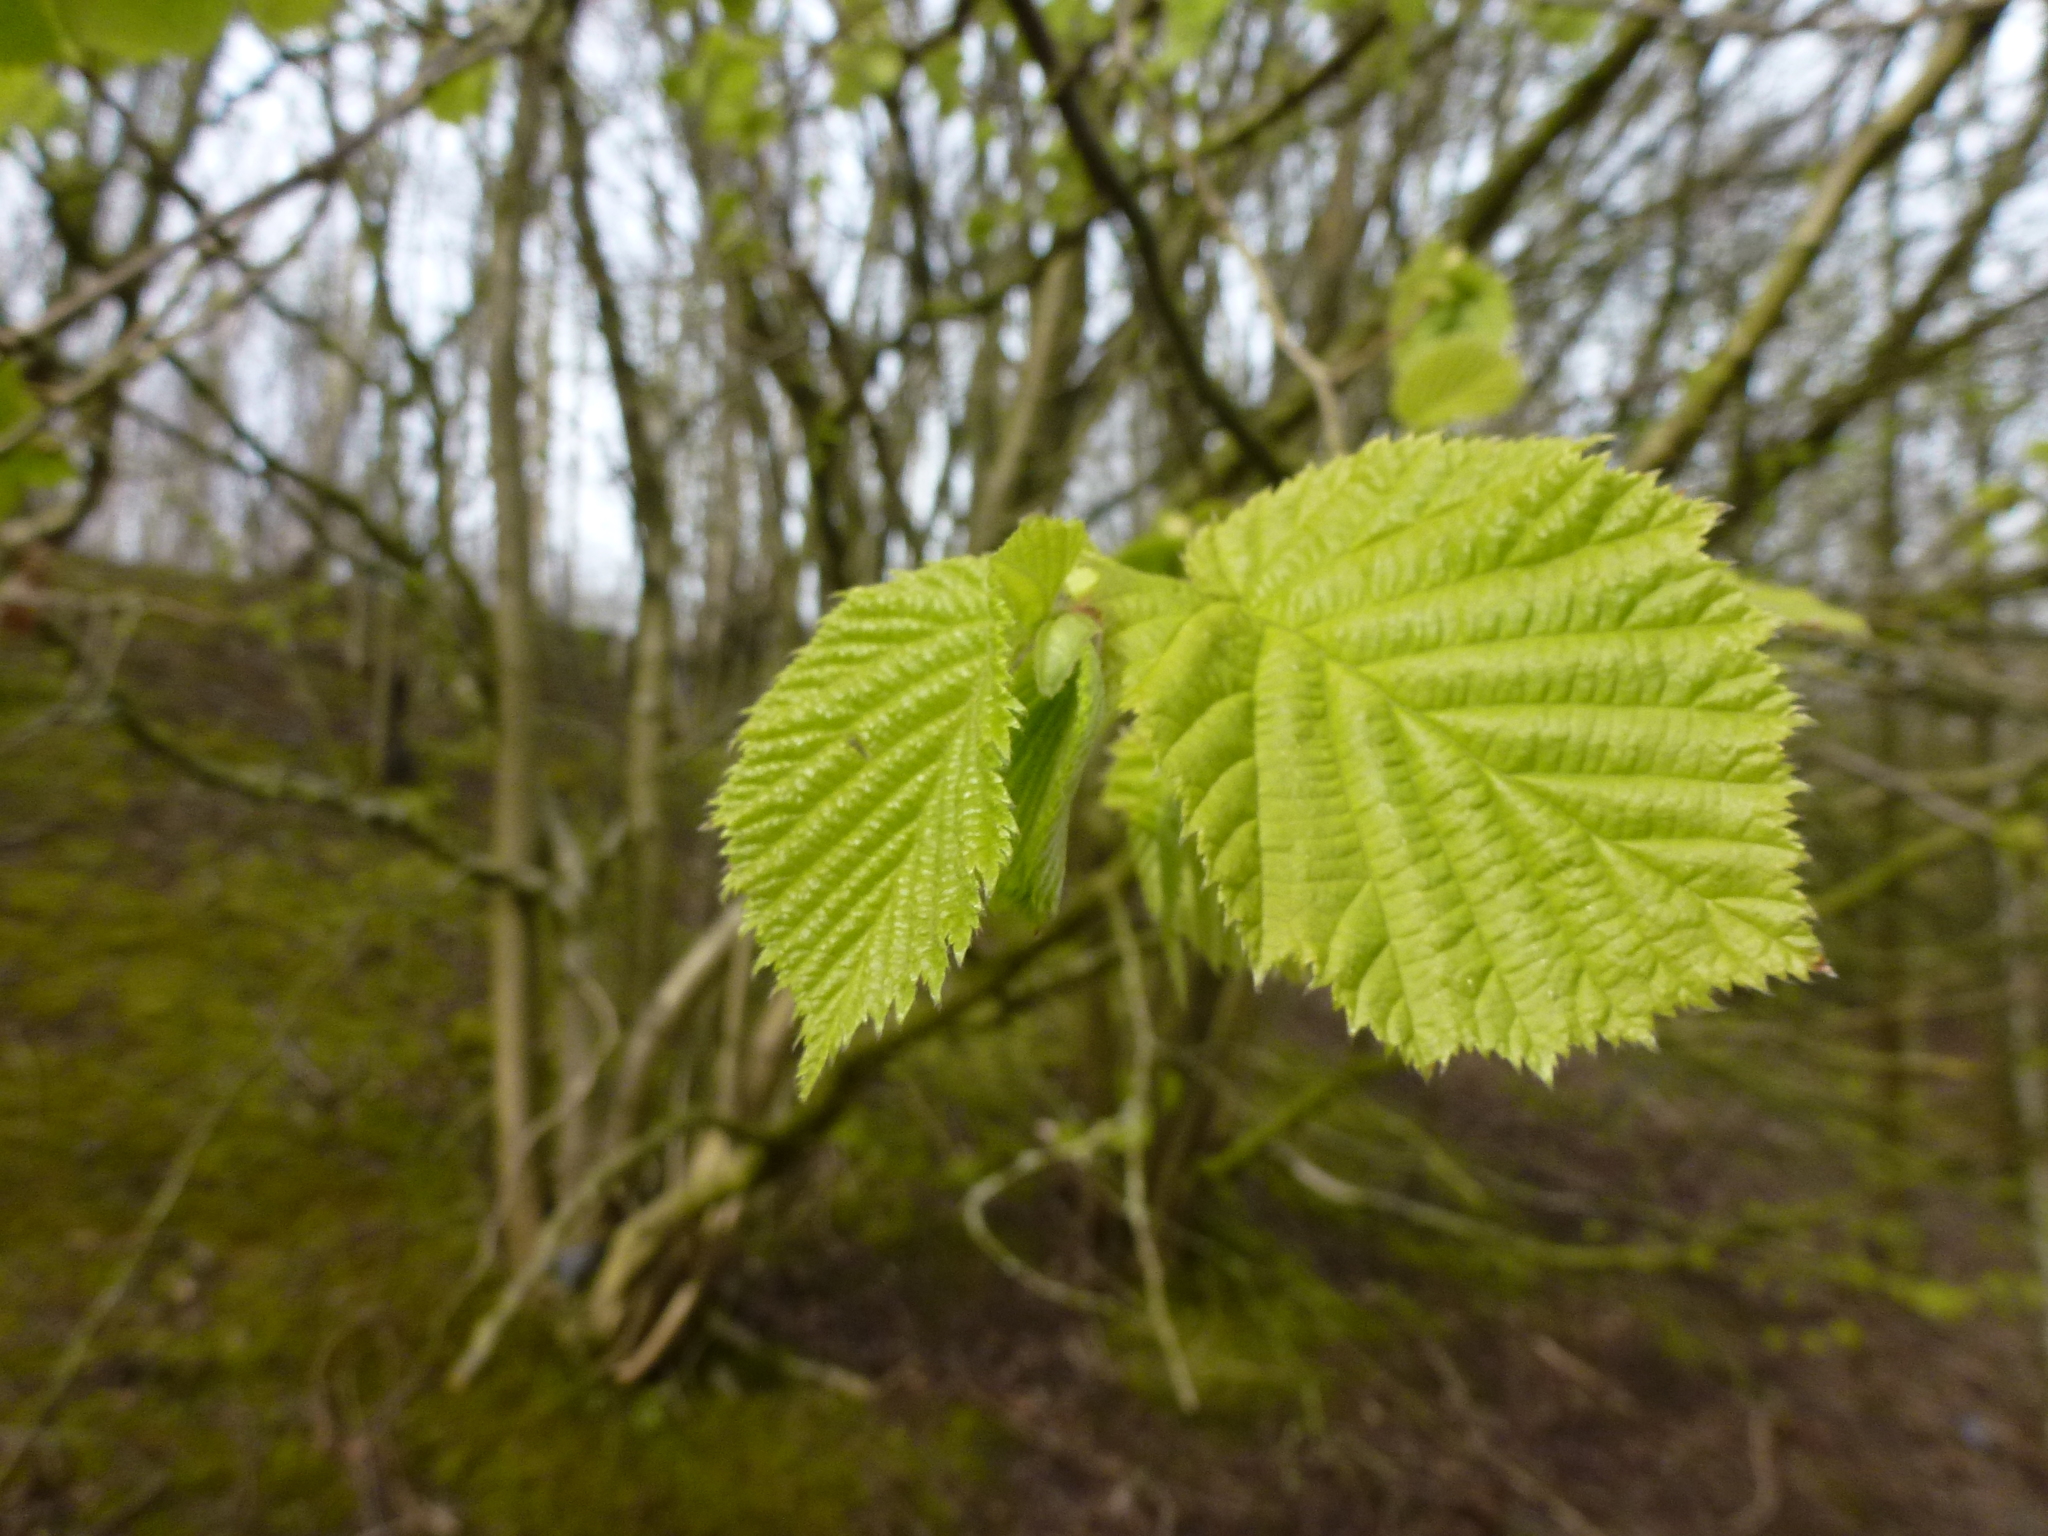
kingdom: Plantae
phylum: Tracheophyta
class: Magnoliopsida
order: Fagales
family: Betulaceae
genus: Corylus
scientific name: Corylus avellana
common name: European hazel
